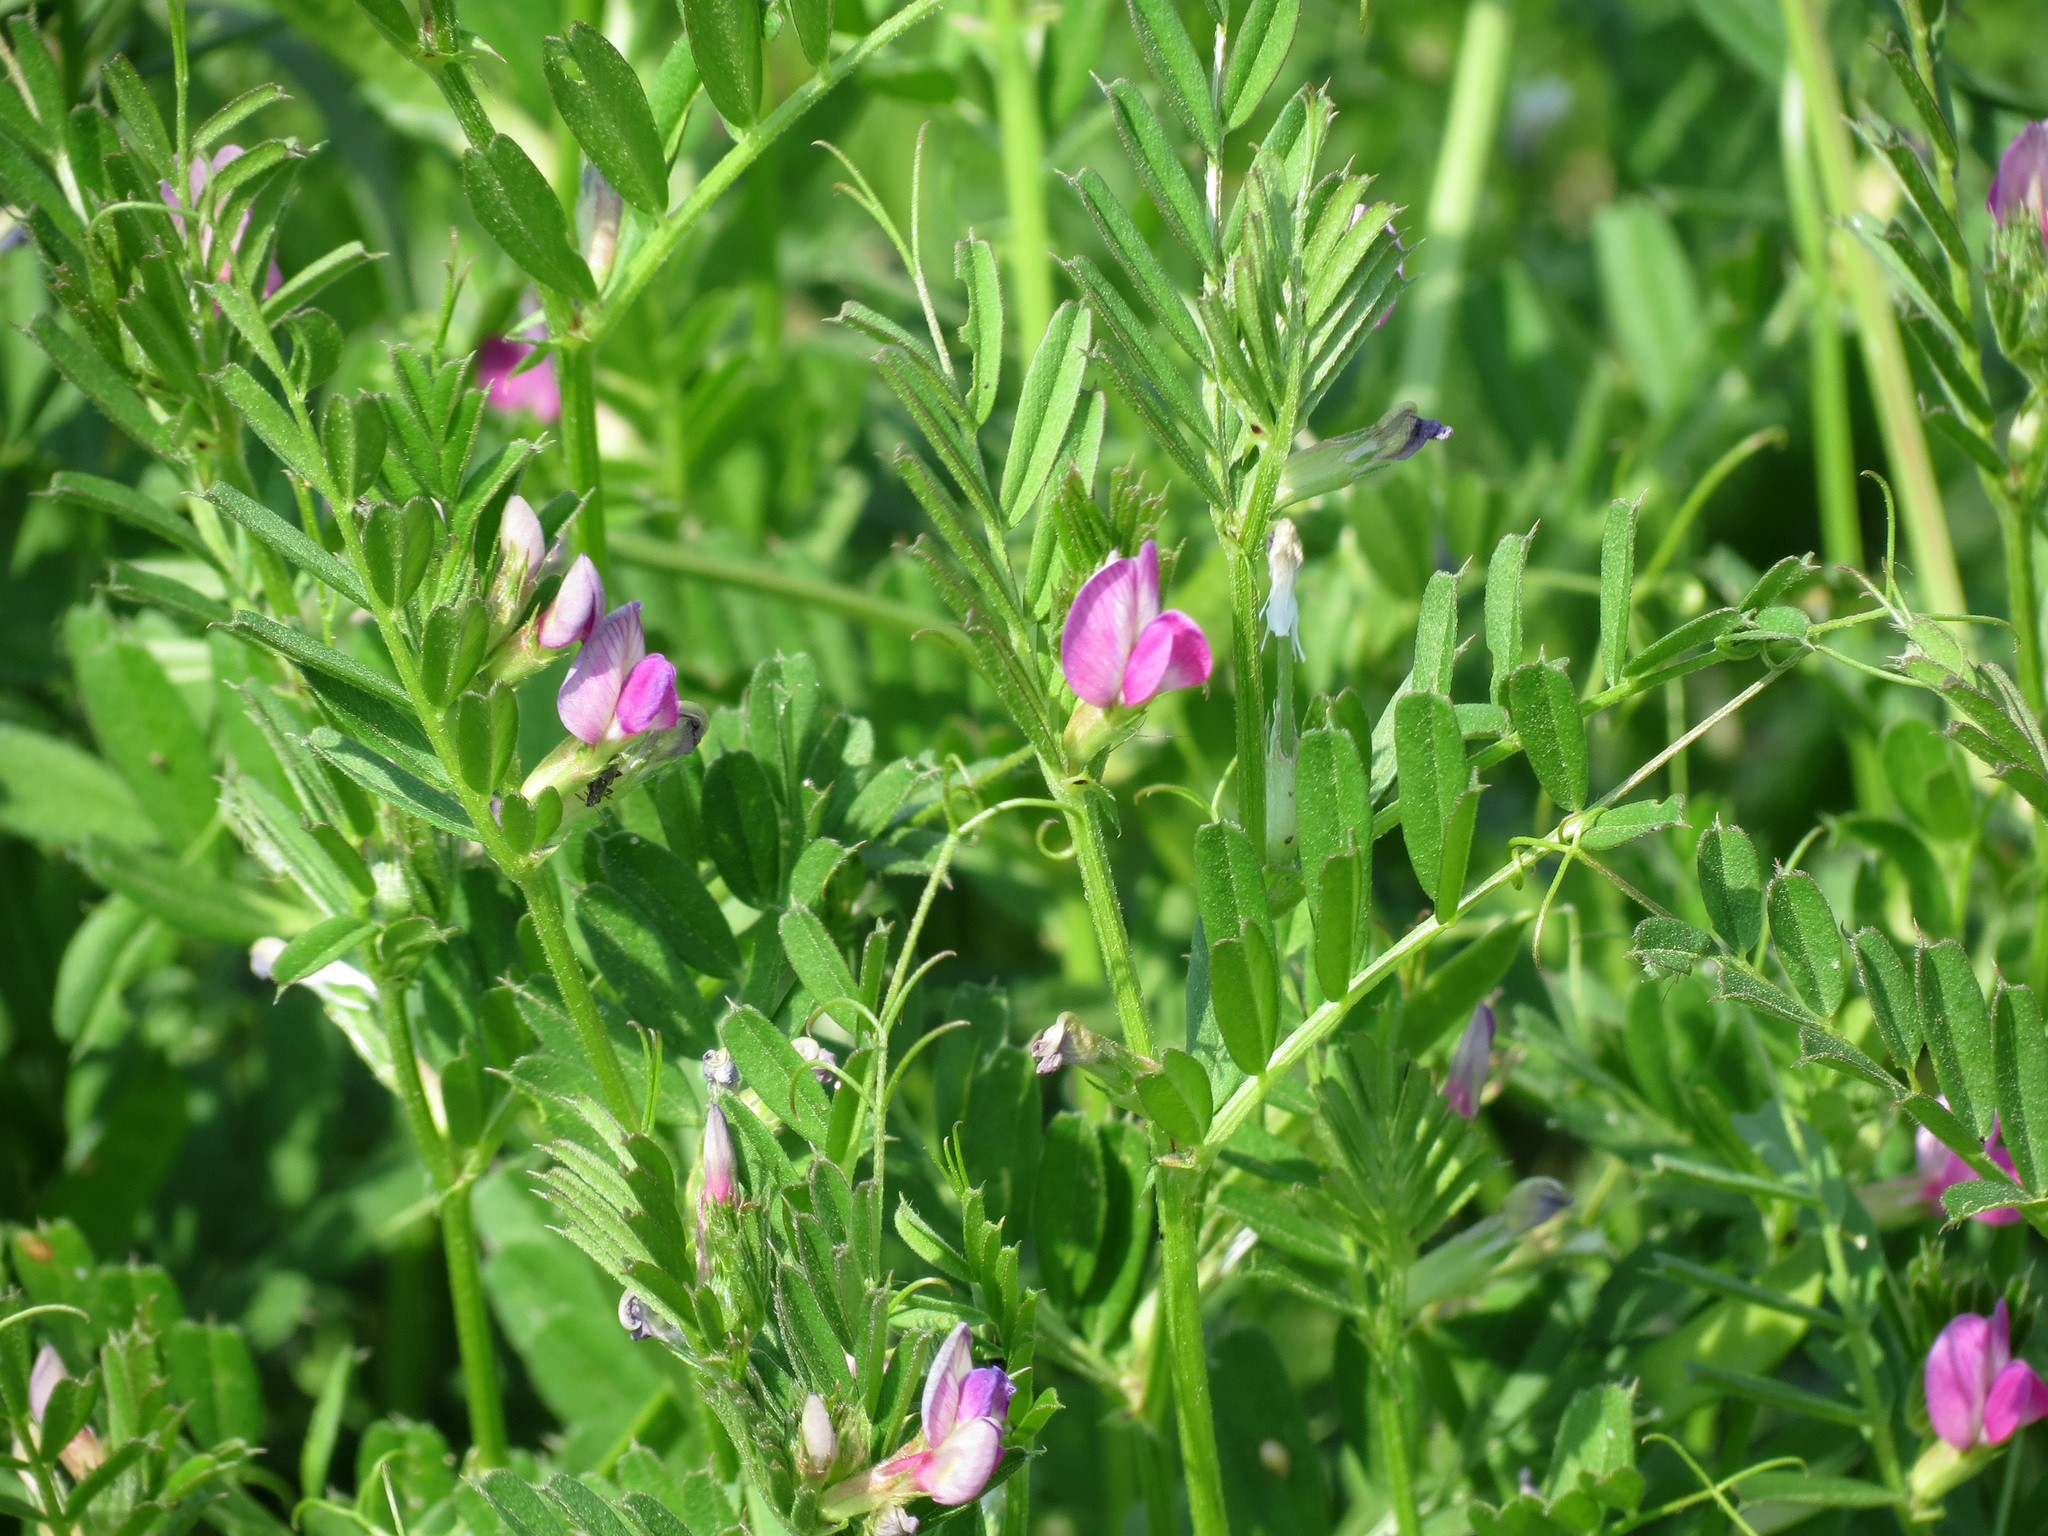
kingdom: Plantae
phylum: Tracheophyta
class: Magnoliopsida
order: Fabales
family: Fabaceae
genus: Vicia
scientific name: Vicia sativa
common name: Garden vetch
